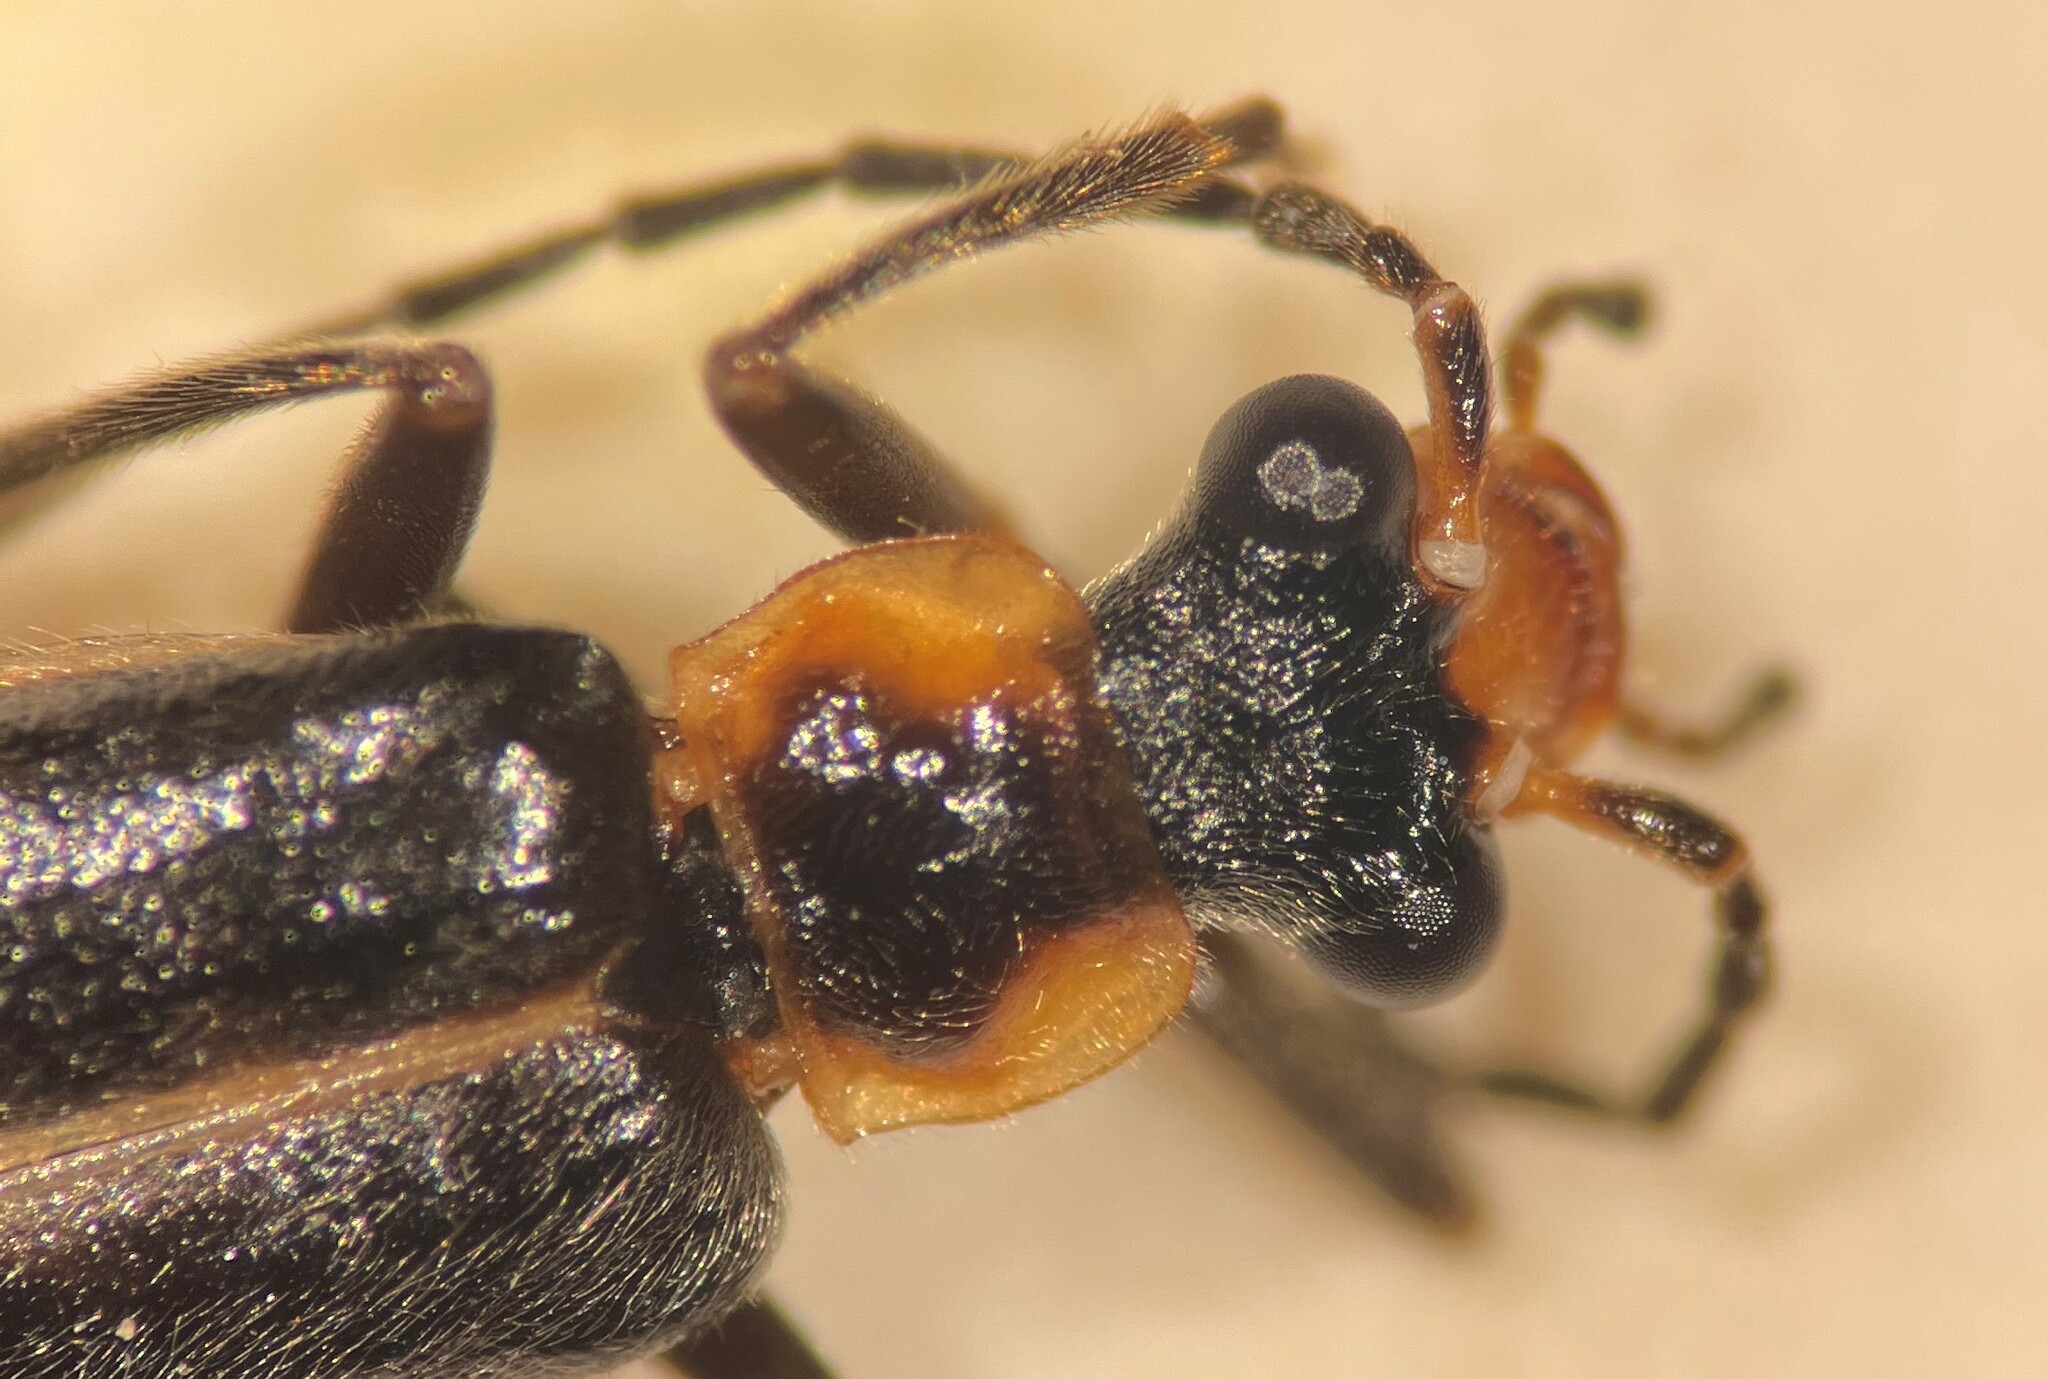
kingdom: Animalia
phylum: Arthropoda
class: Insecta
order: Coleoptera
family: Cantharidae
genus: Podabrus
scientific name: Podabrus intrusus
